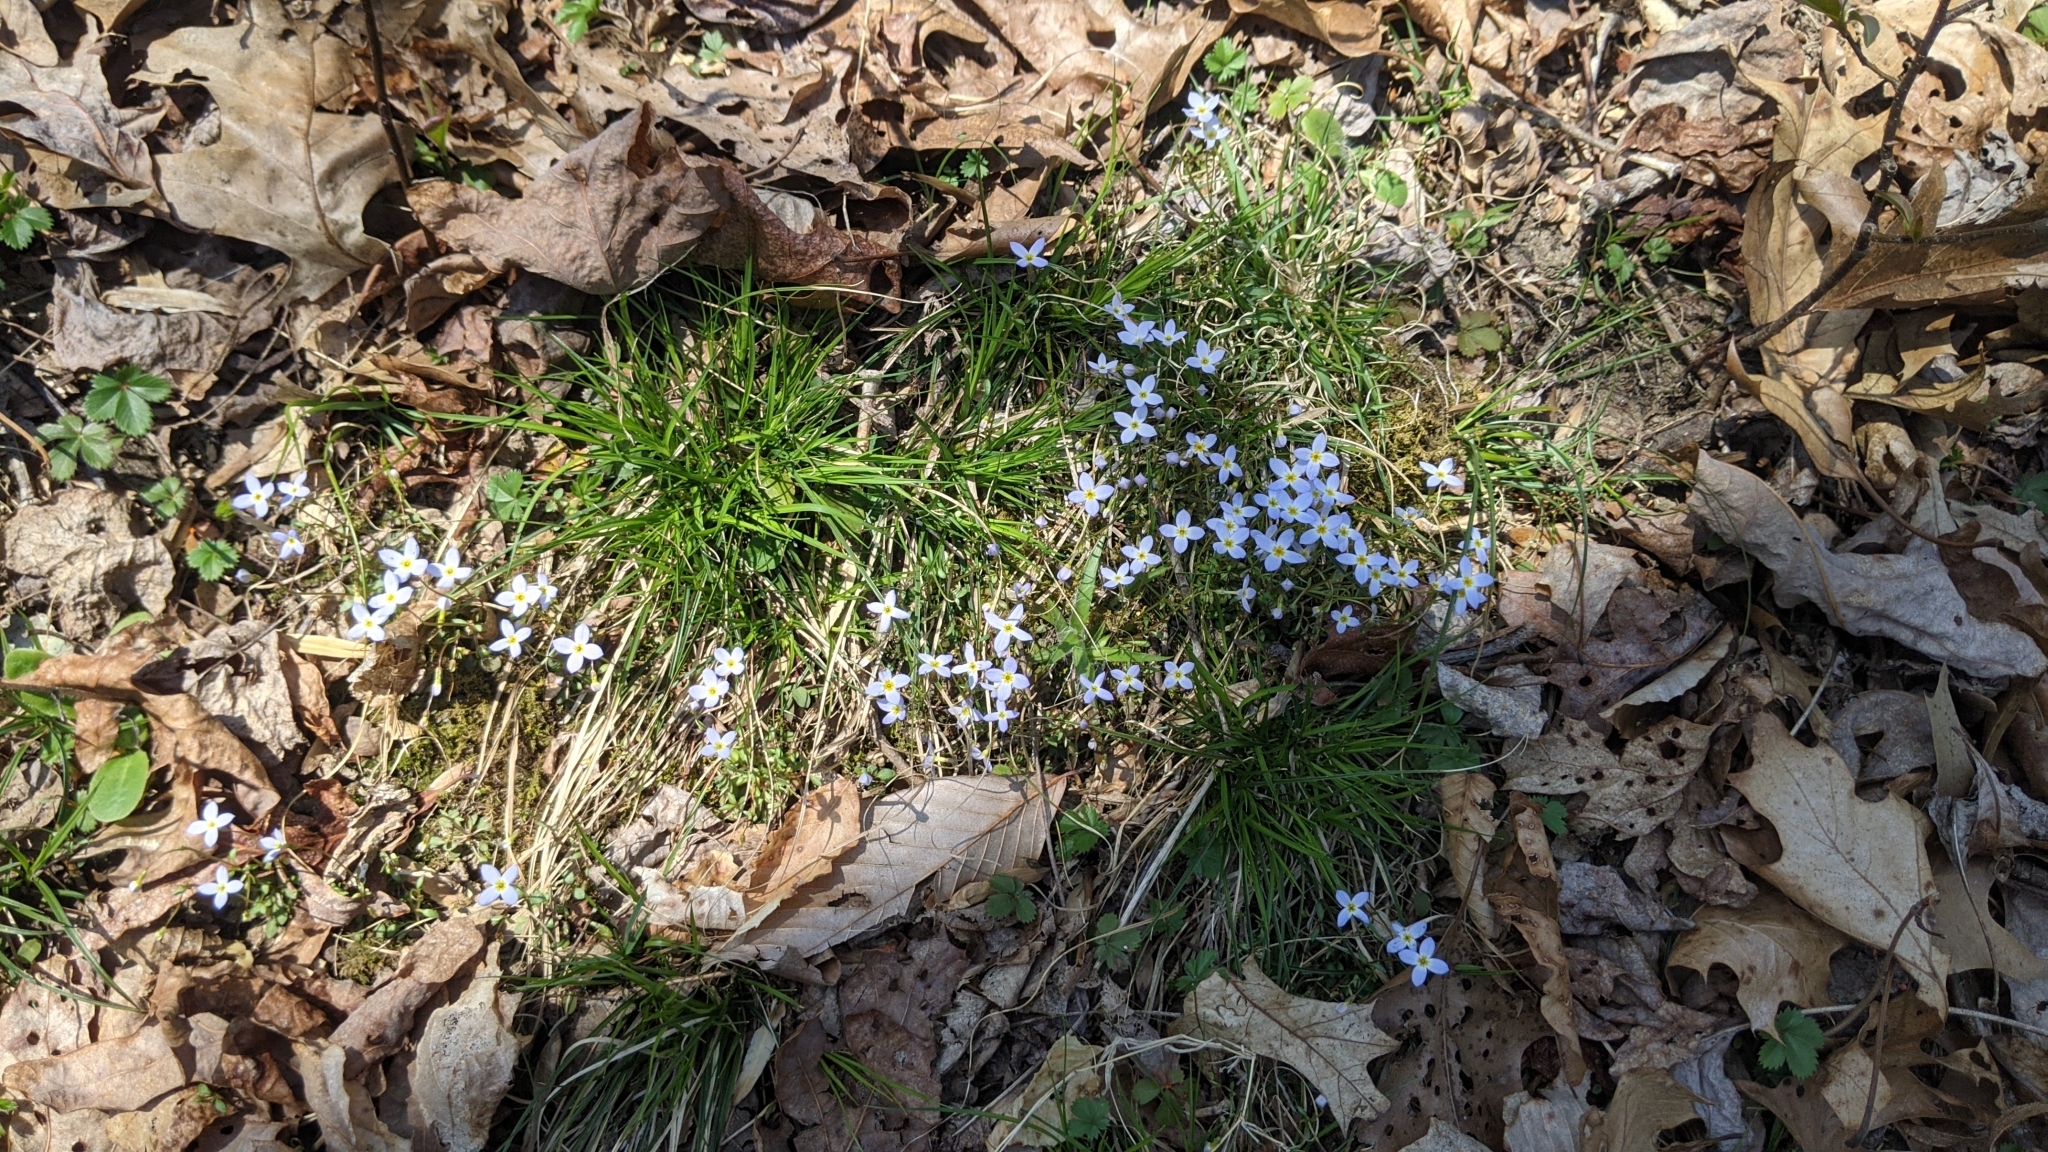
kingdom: Plantae
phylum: Tracheophyta
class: Magnoliopsida
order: Gentianales
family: Rubiaceae
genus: Houstonia
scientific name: Houstonia caerulea
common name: Bluets
